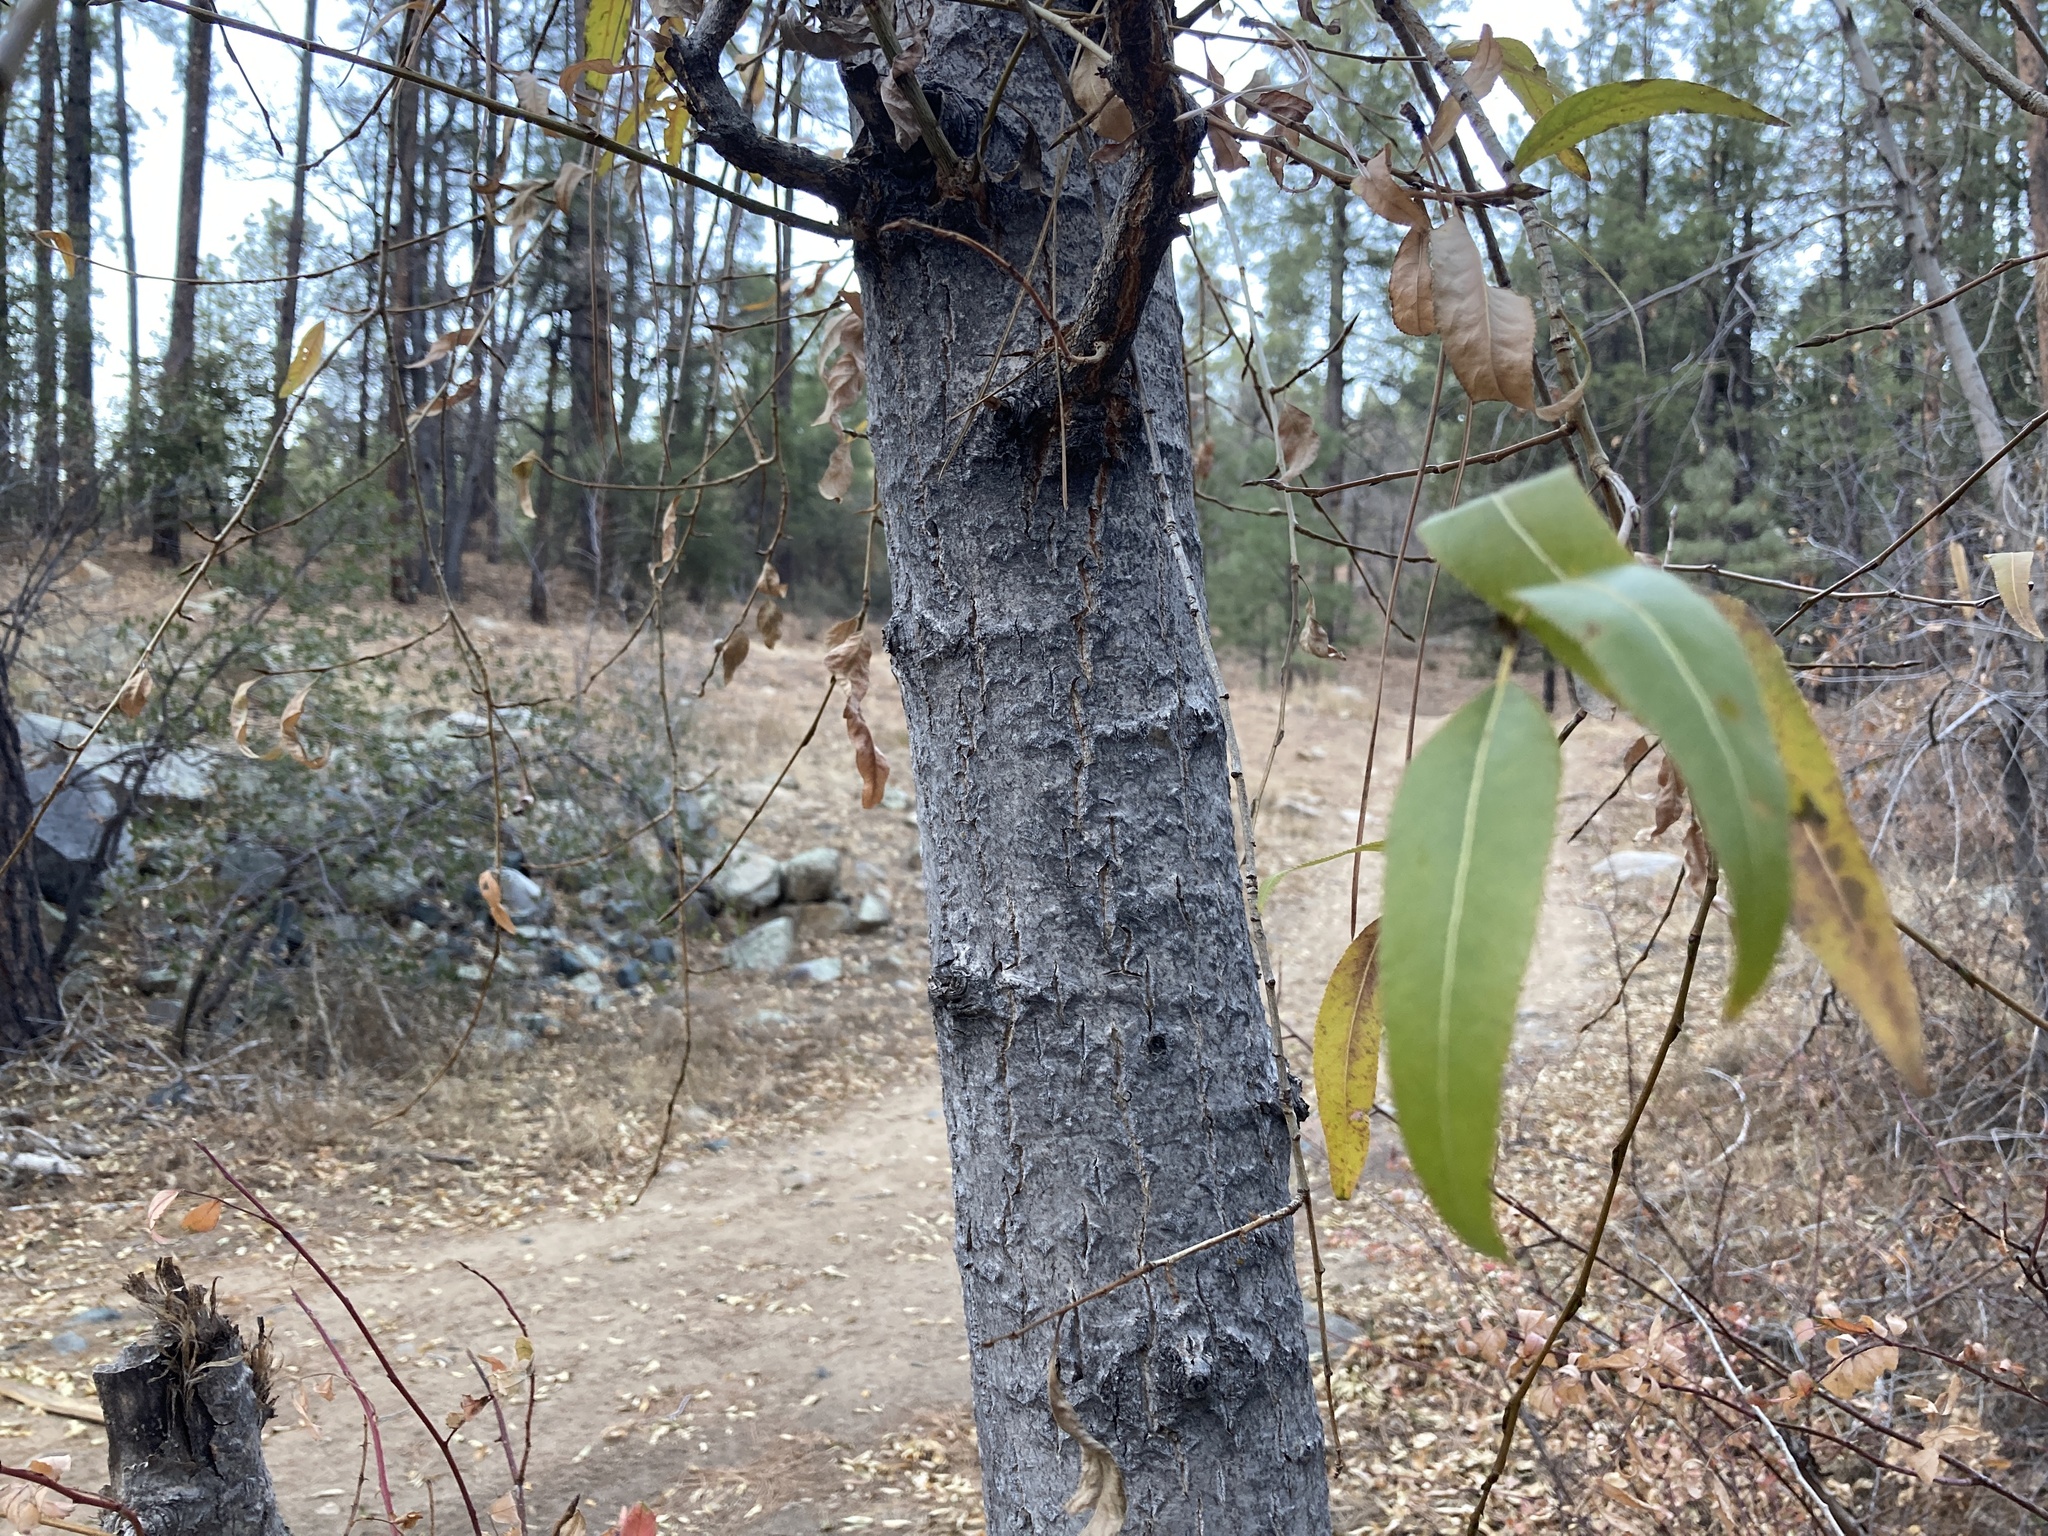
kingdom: Plantae
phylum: Tracheophyta
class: Magnoliopsida
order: Malpighiales
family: Salicaceae
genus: Populus
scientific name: Populus angustifolia
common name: Willow cottonwood
